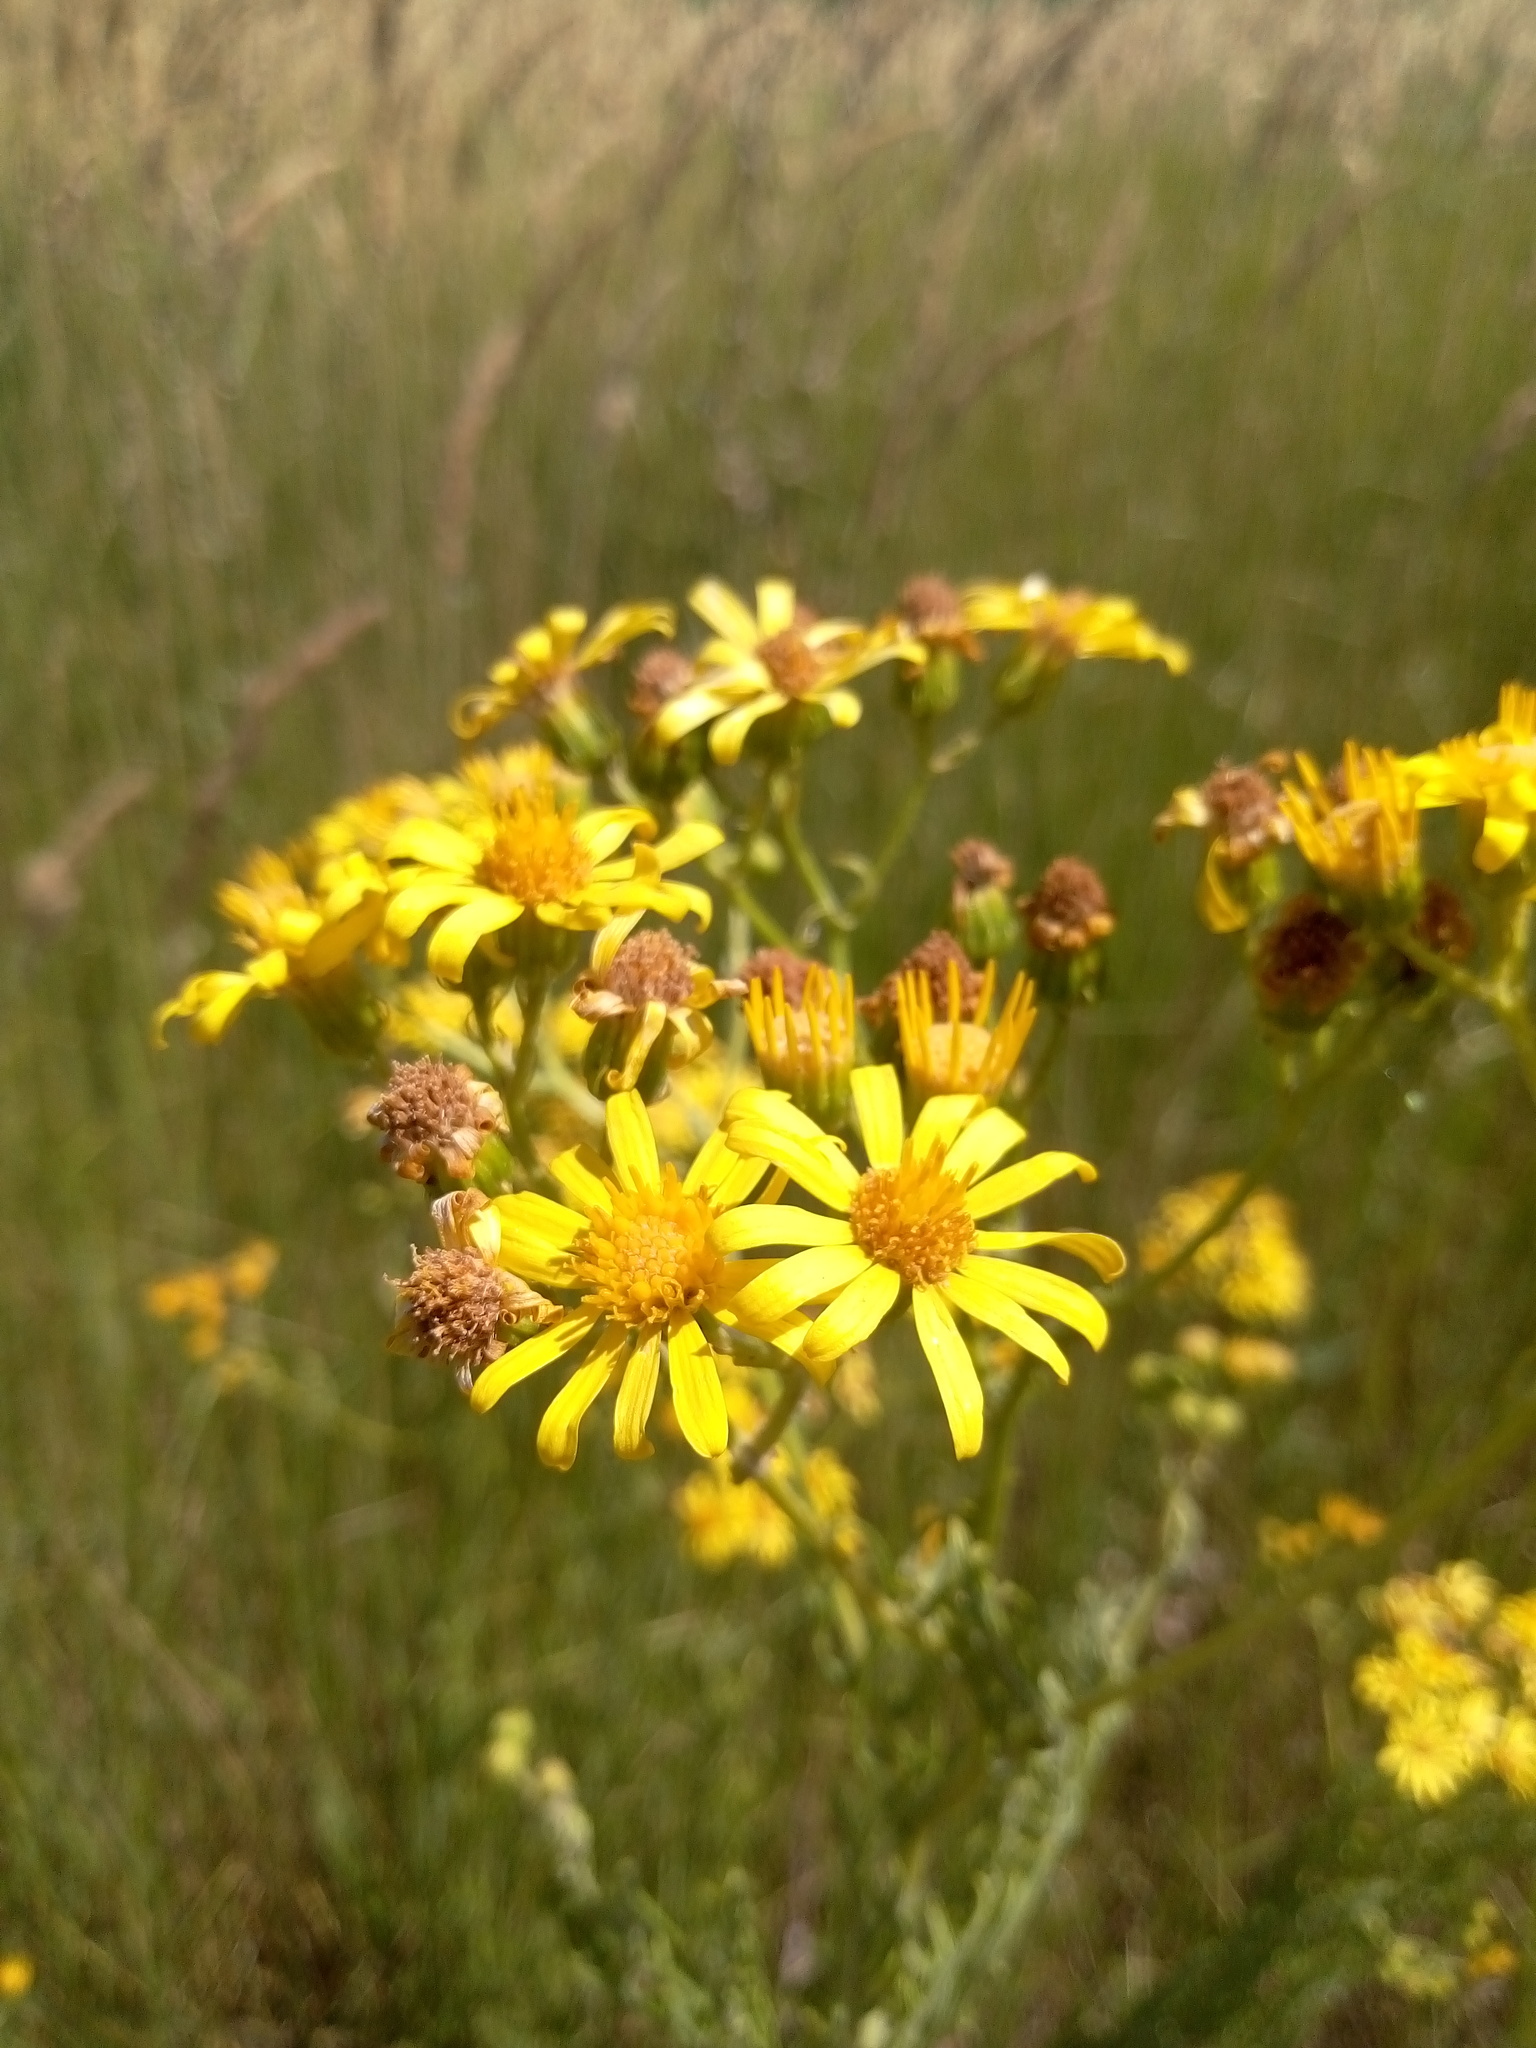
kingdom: Plantae
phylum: Tracheophyta
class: Magnoliopsida
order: Asterales
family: Asteraceae
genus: Jacobaea
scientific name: Jacobaea erucifolia
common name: Hoary ragwort
